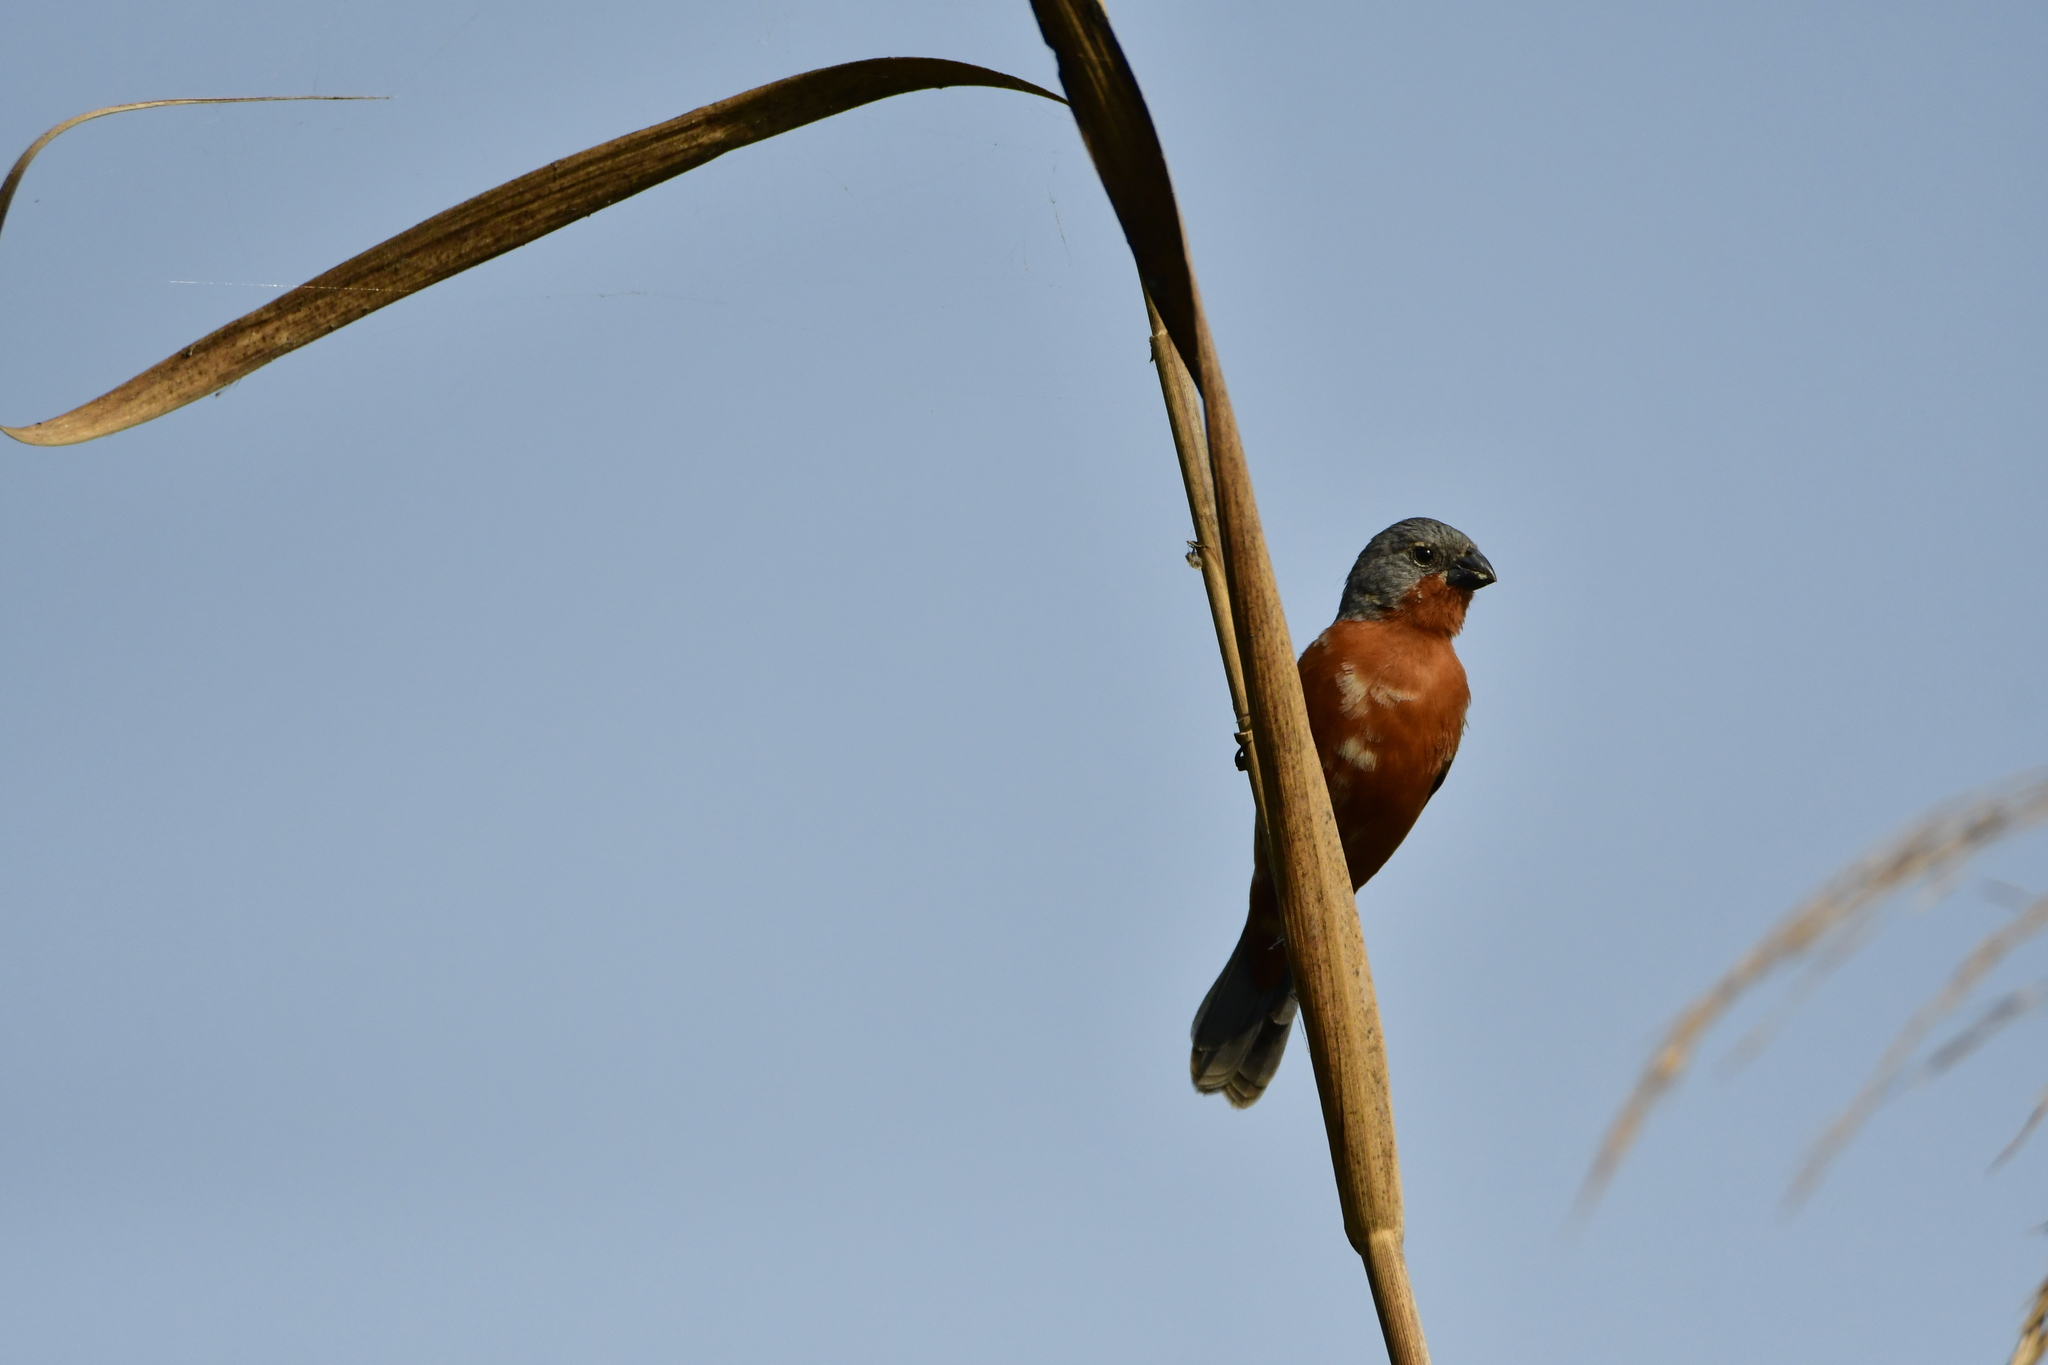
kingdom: Animalia
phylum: Chordata
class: Aves
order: Passeriformes
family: Thraupidae
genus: Sporophila
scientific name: Sporophila minuta
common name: Ruddy-breasted seedeater
